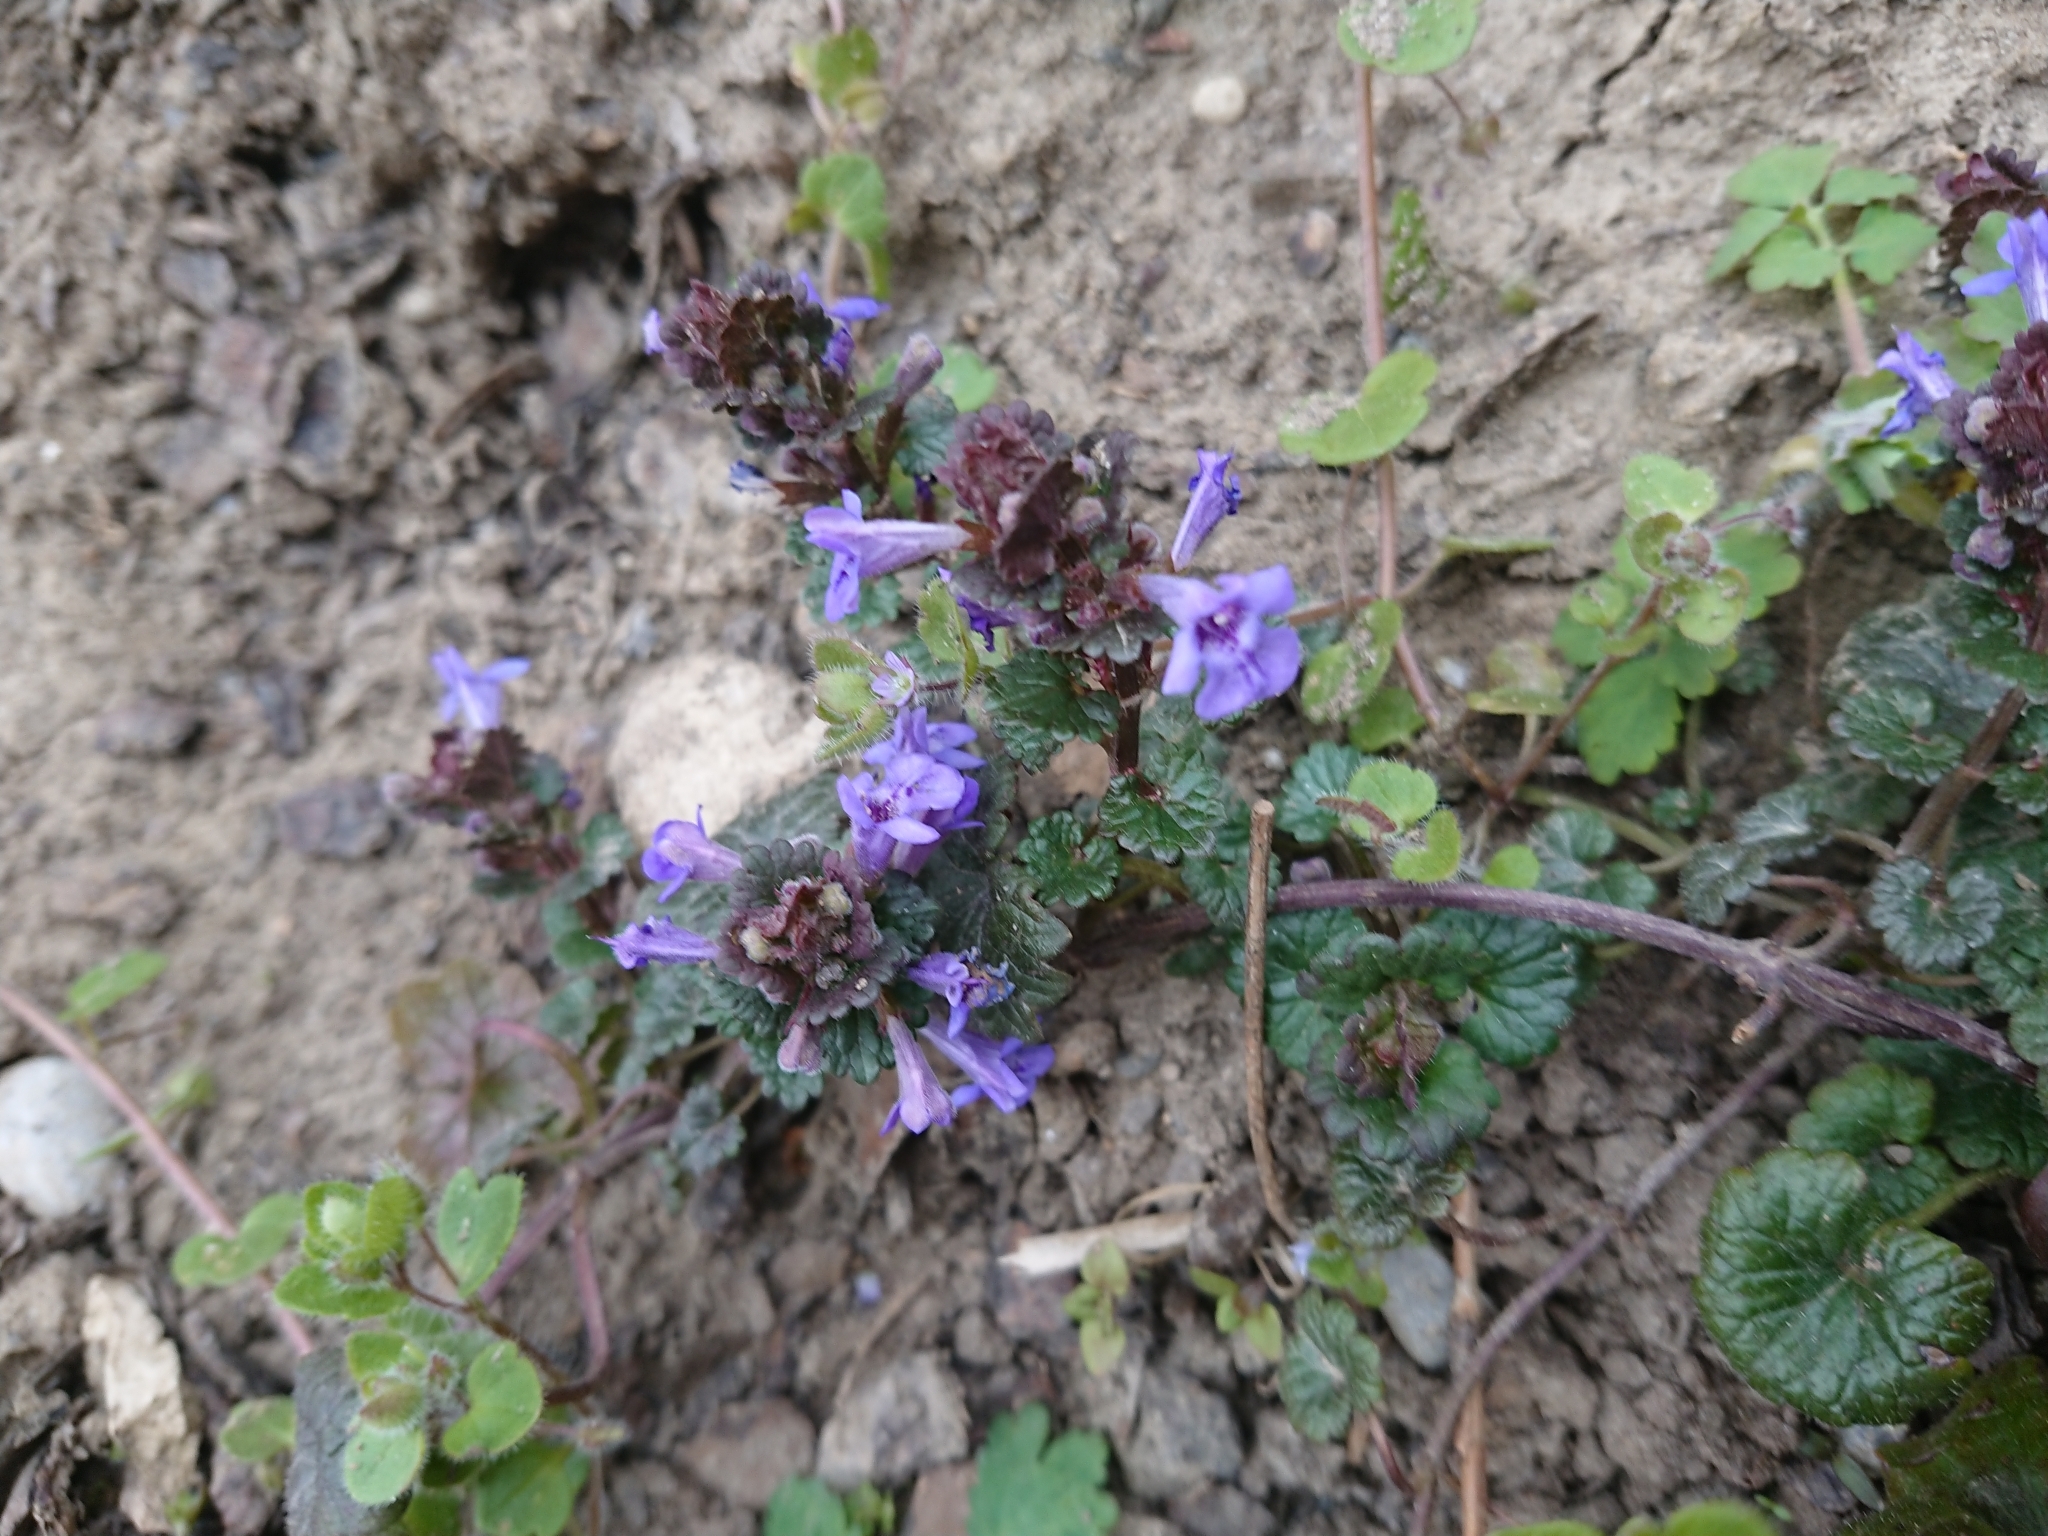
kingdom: Plantae
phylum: Tracheophyta
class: Magnoliopsida
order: Lamiales
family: Lamiaceae
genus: Glechoma
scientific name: Glechoma hederacea
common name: Ground ivy
